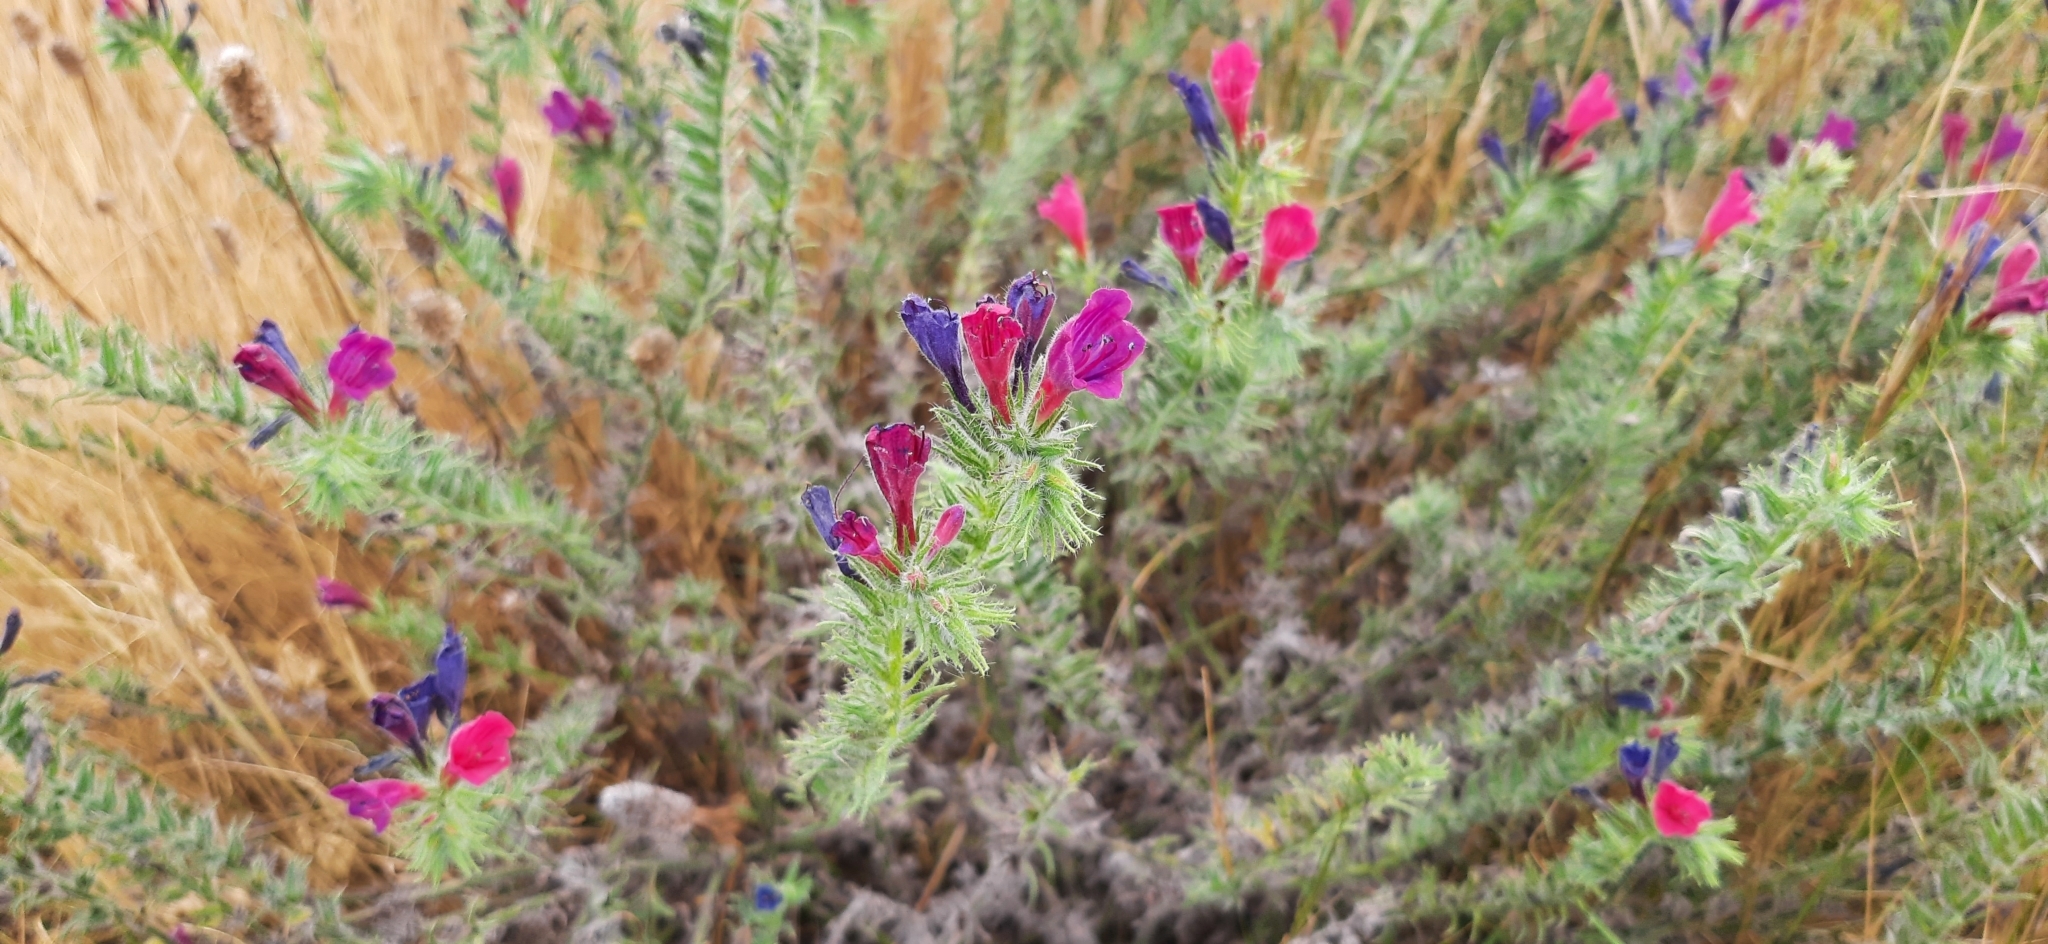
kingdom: Plantae
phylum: Tracheophyta
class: Magnoliopsida
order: Boraginales
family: Boraginaceae
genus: Echium
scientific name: Echium sabulicola
